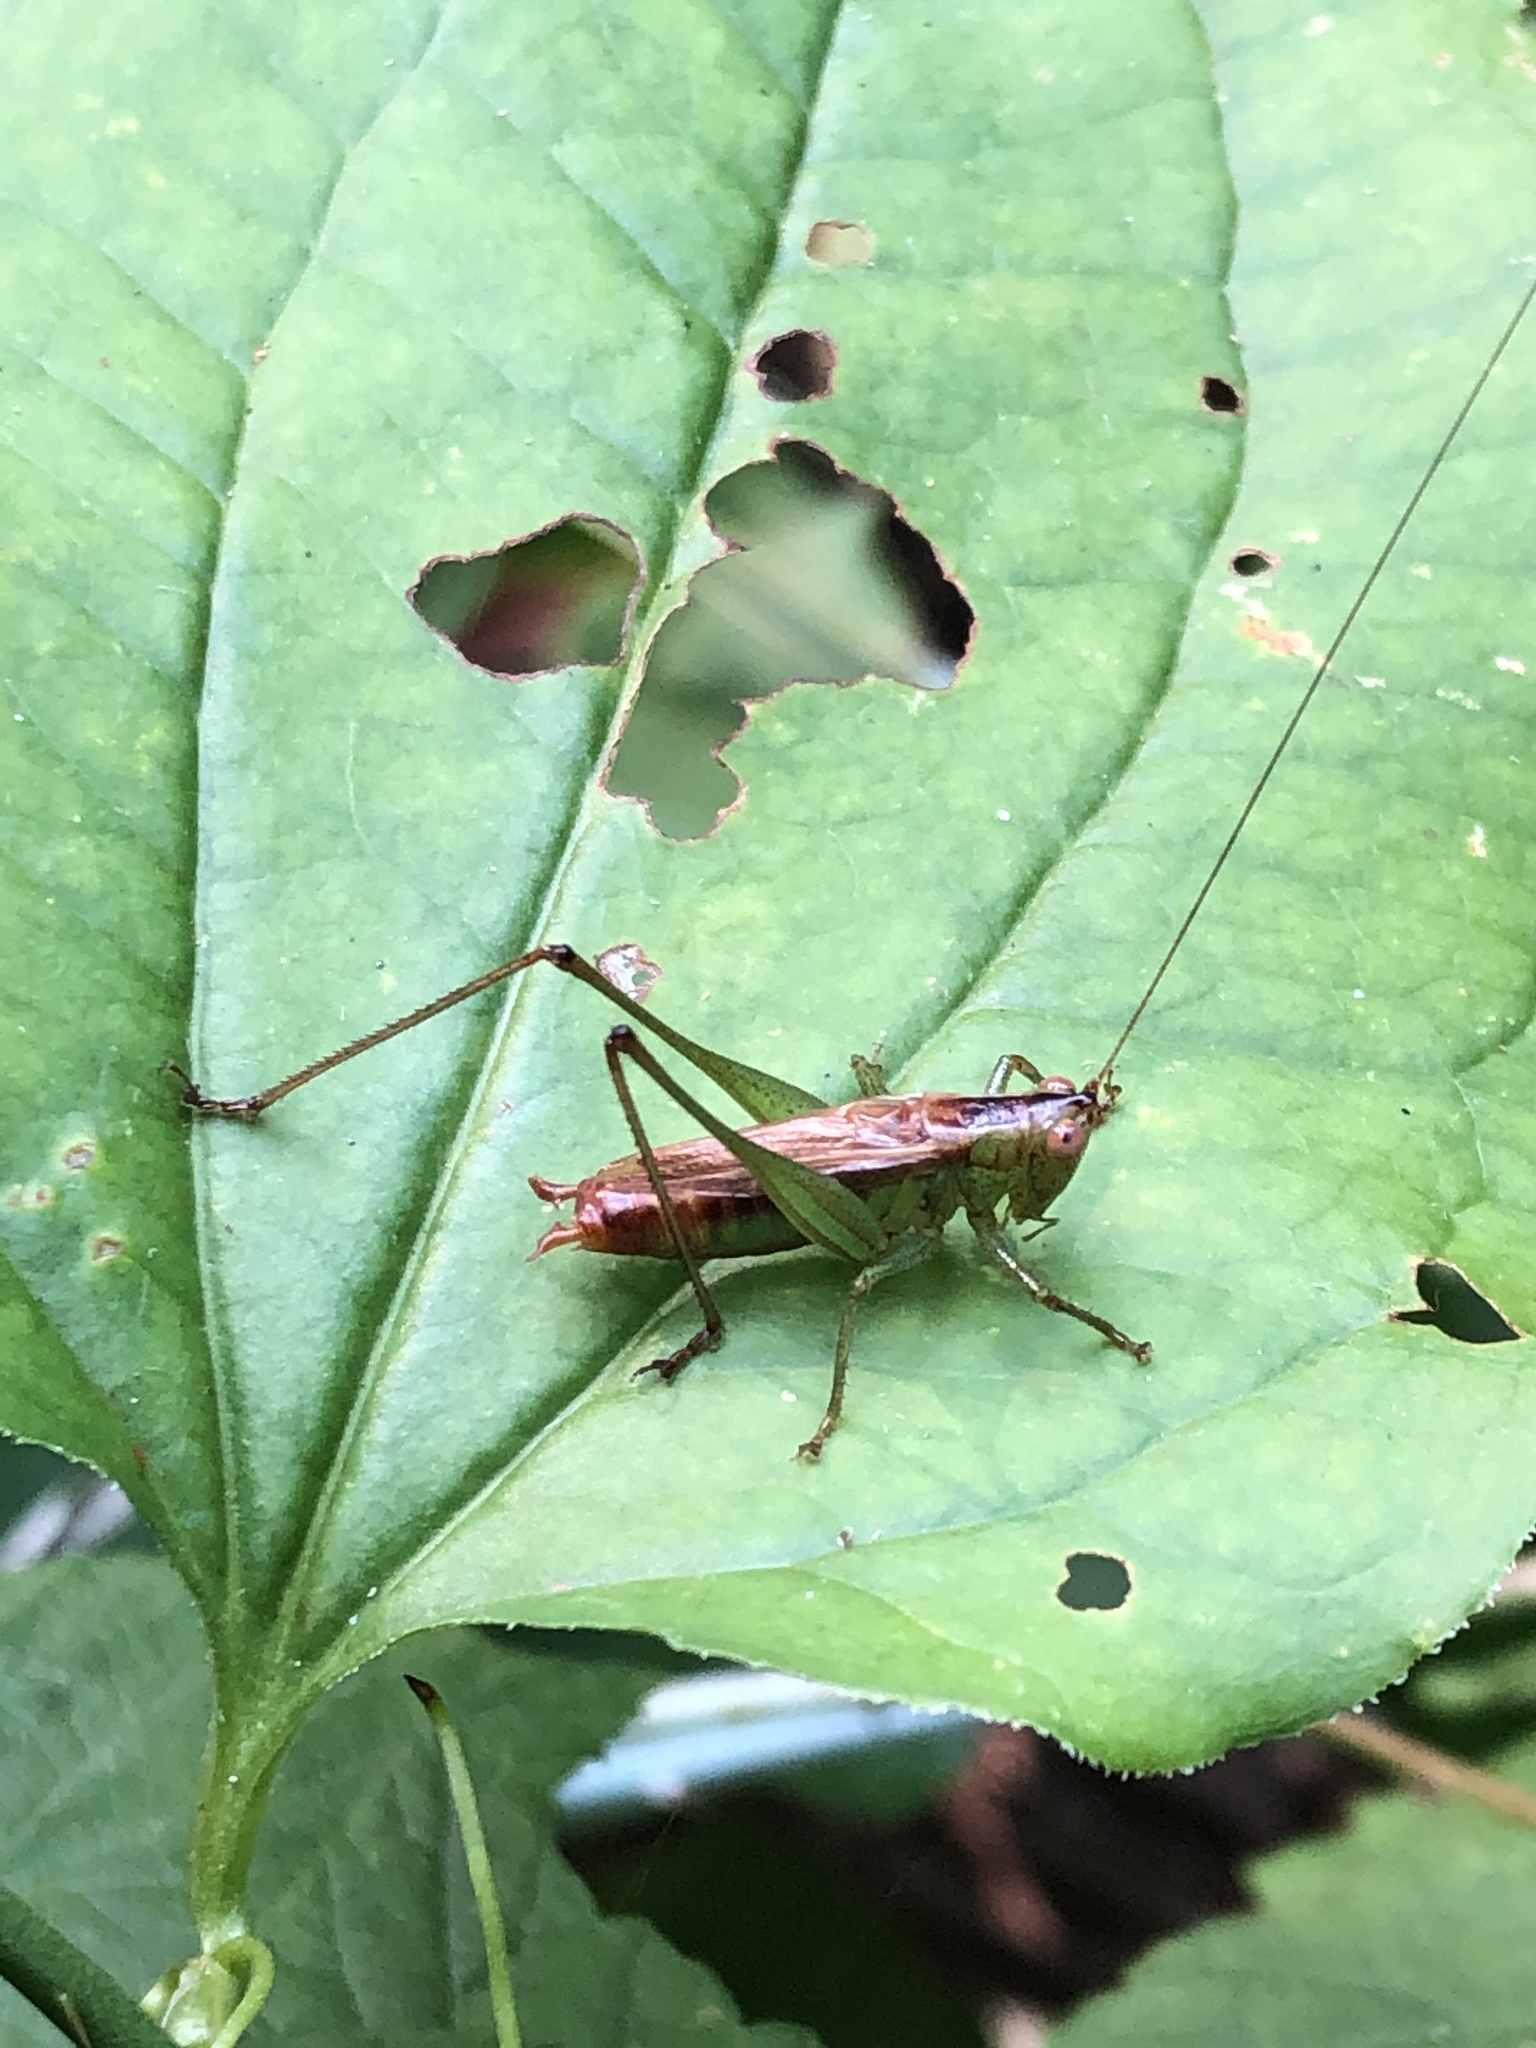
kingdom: Animalia
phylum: Arthropoda
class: Insecta
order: Orthoptera
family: Tettigoniidae
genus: Conocephalus
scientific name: Conocephalus brevipennis
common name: Short-winged meadow katydid
